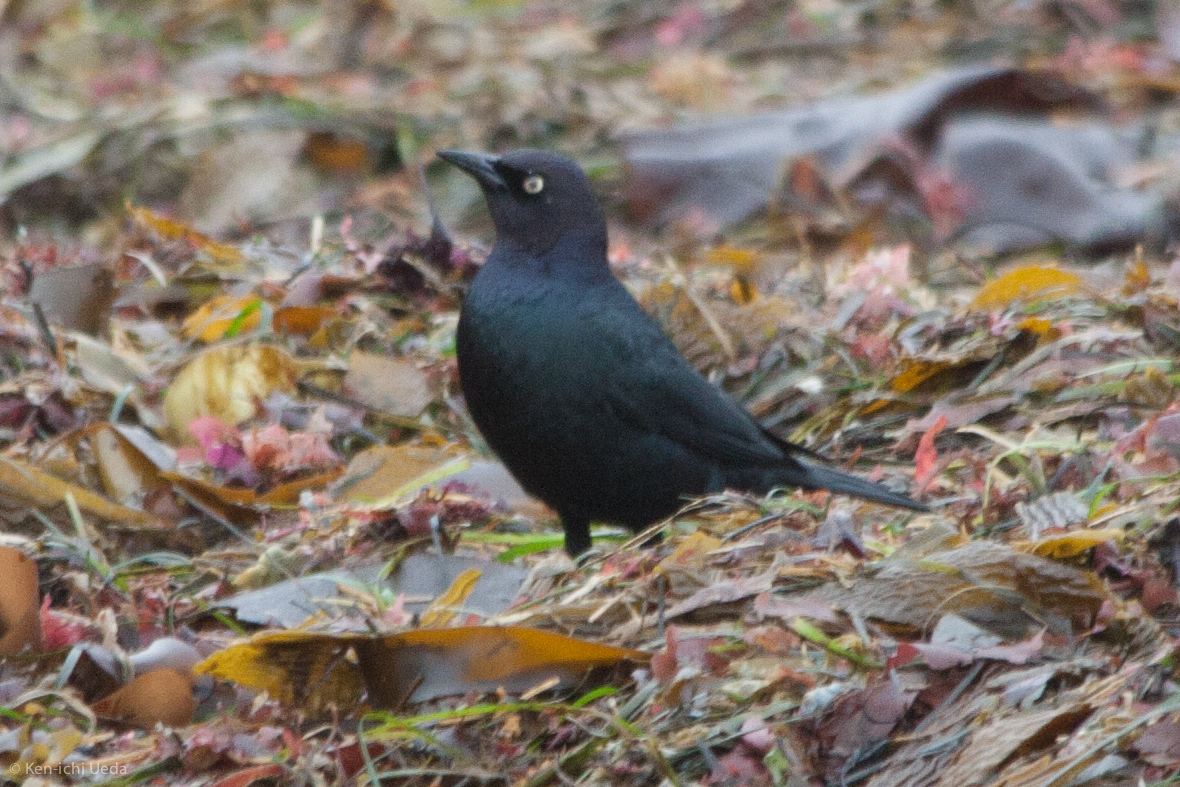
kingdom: Animalia
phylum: Chordata
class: Aves
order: Passeriformes
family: Icteridae
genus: Euphagus
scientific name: Euphagus cyanocephalus
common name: Brewer's blackbird
